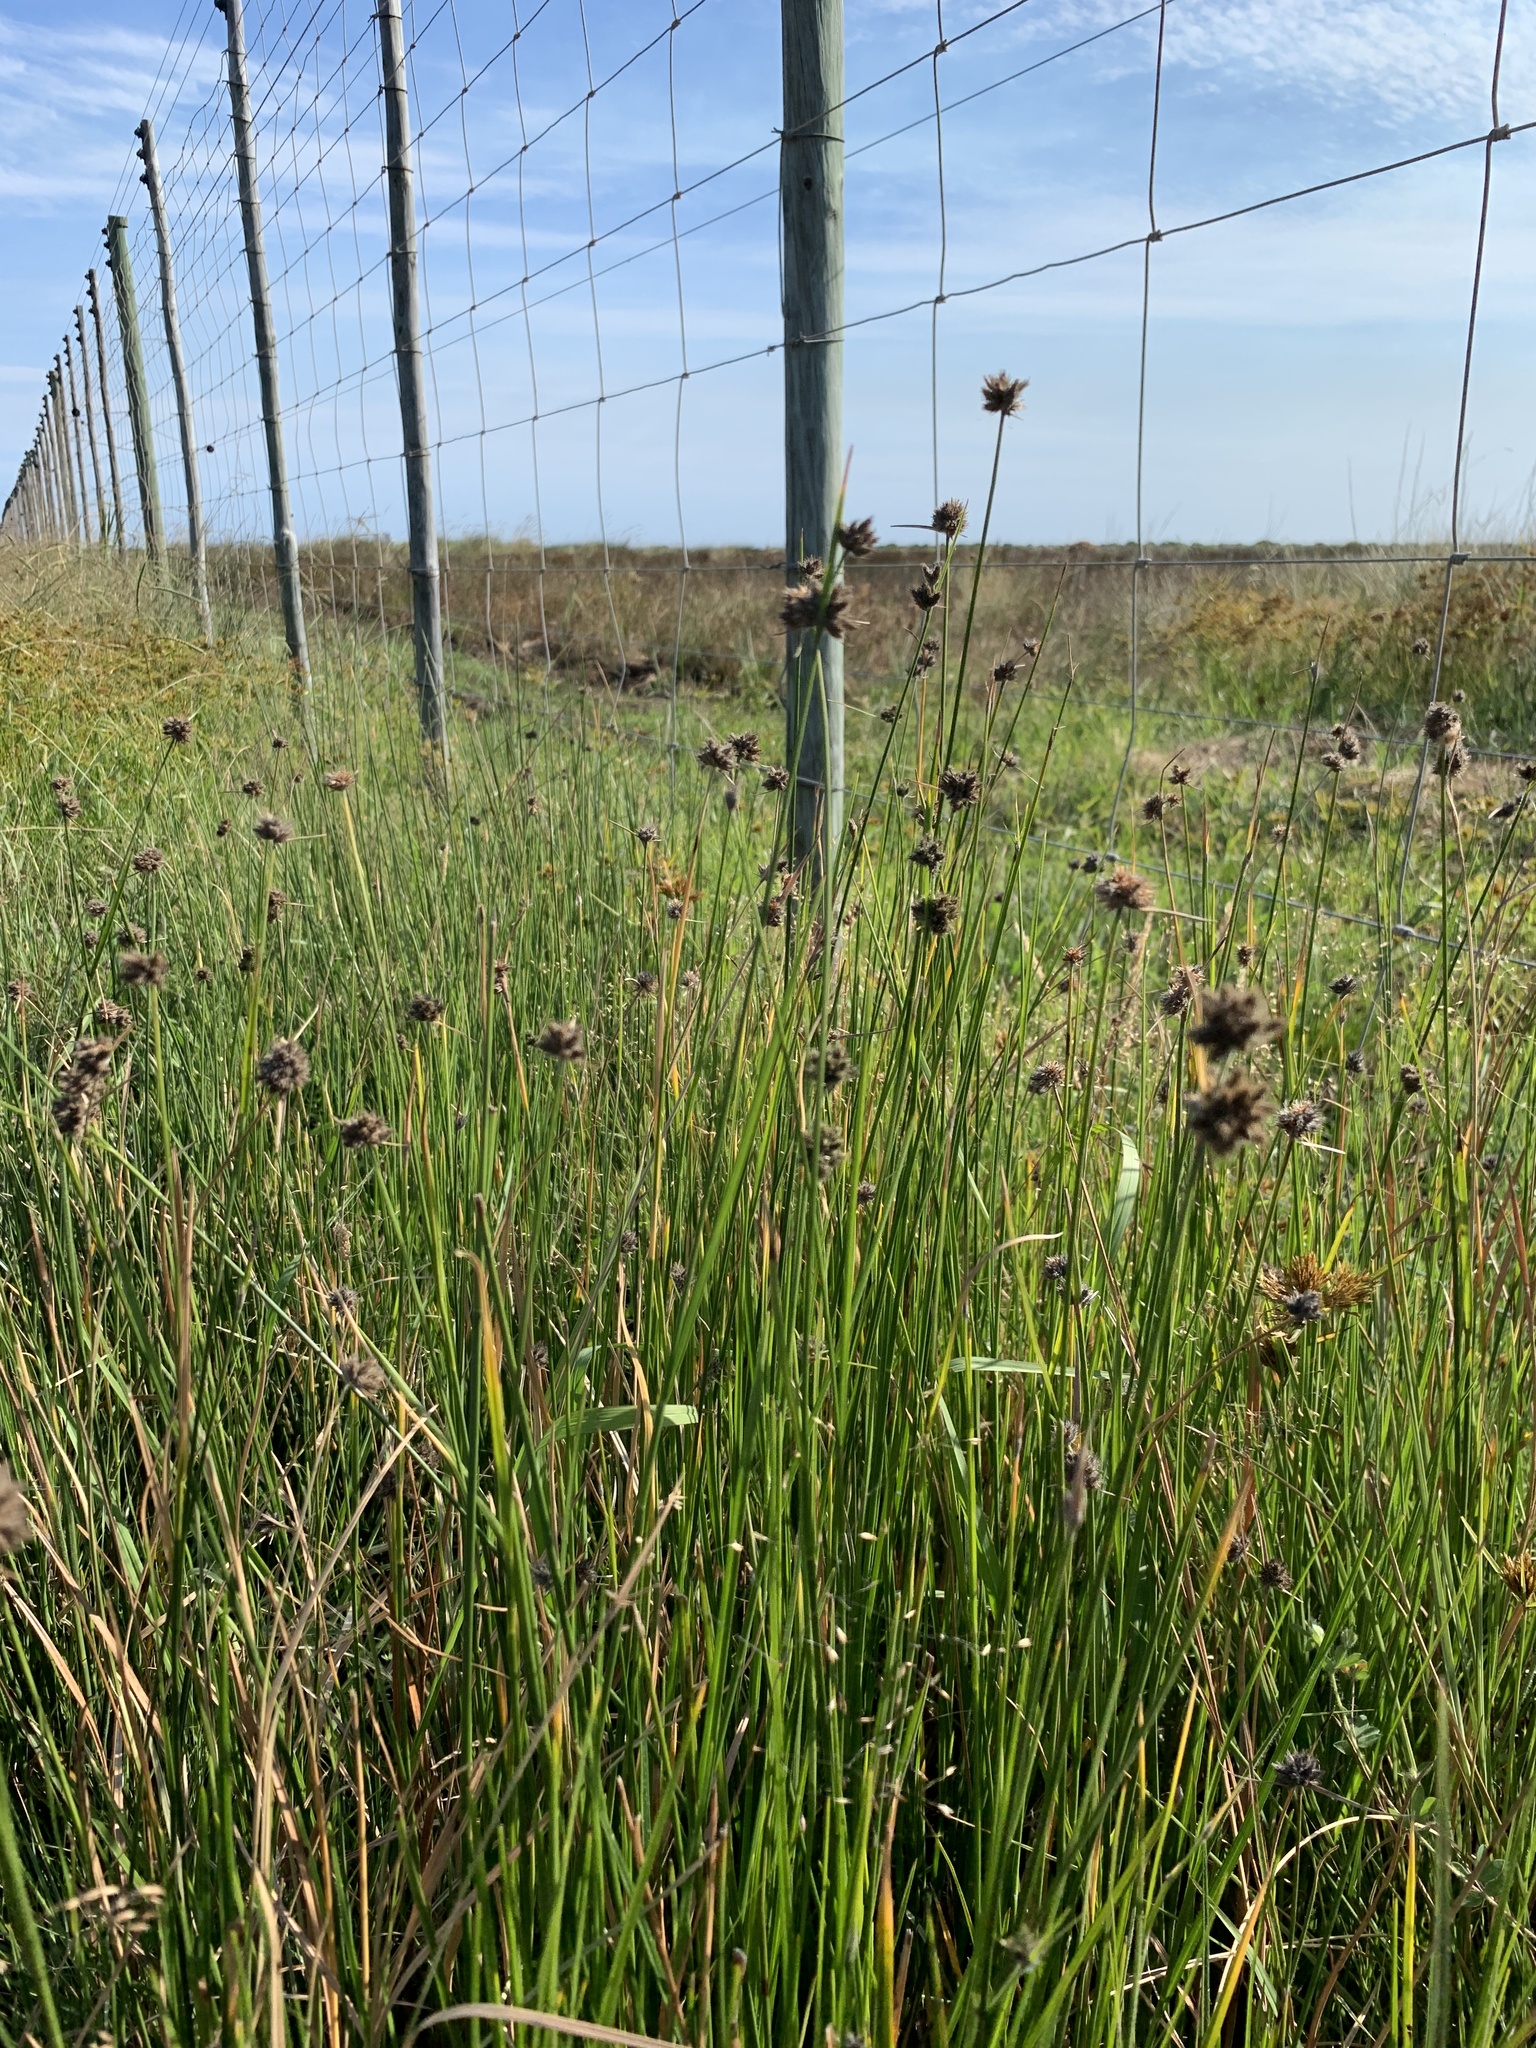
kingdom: Plantae
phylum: Tracheophyta
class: Liliopsida
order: Poales
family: Cyperaceae
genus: Fuirena
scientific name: Fuirena hirsuta
